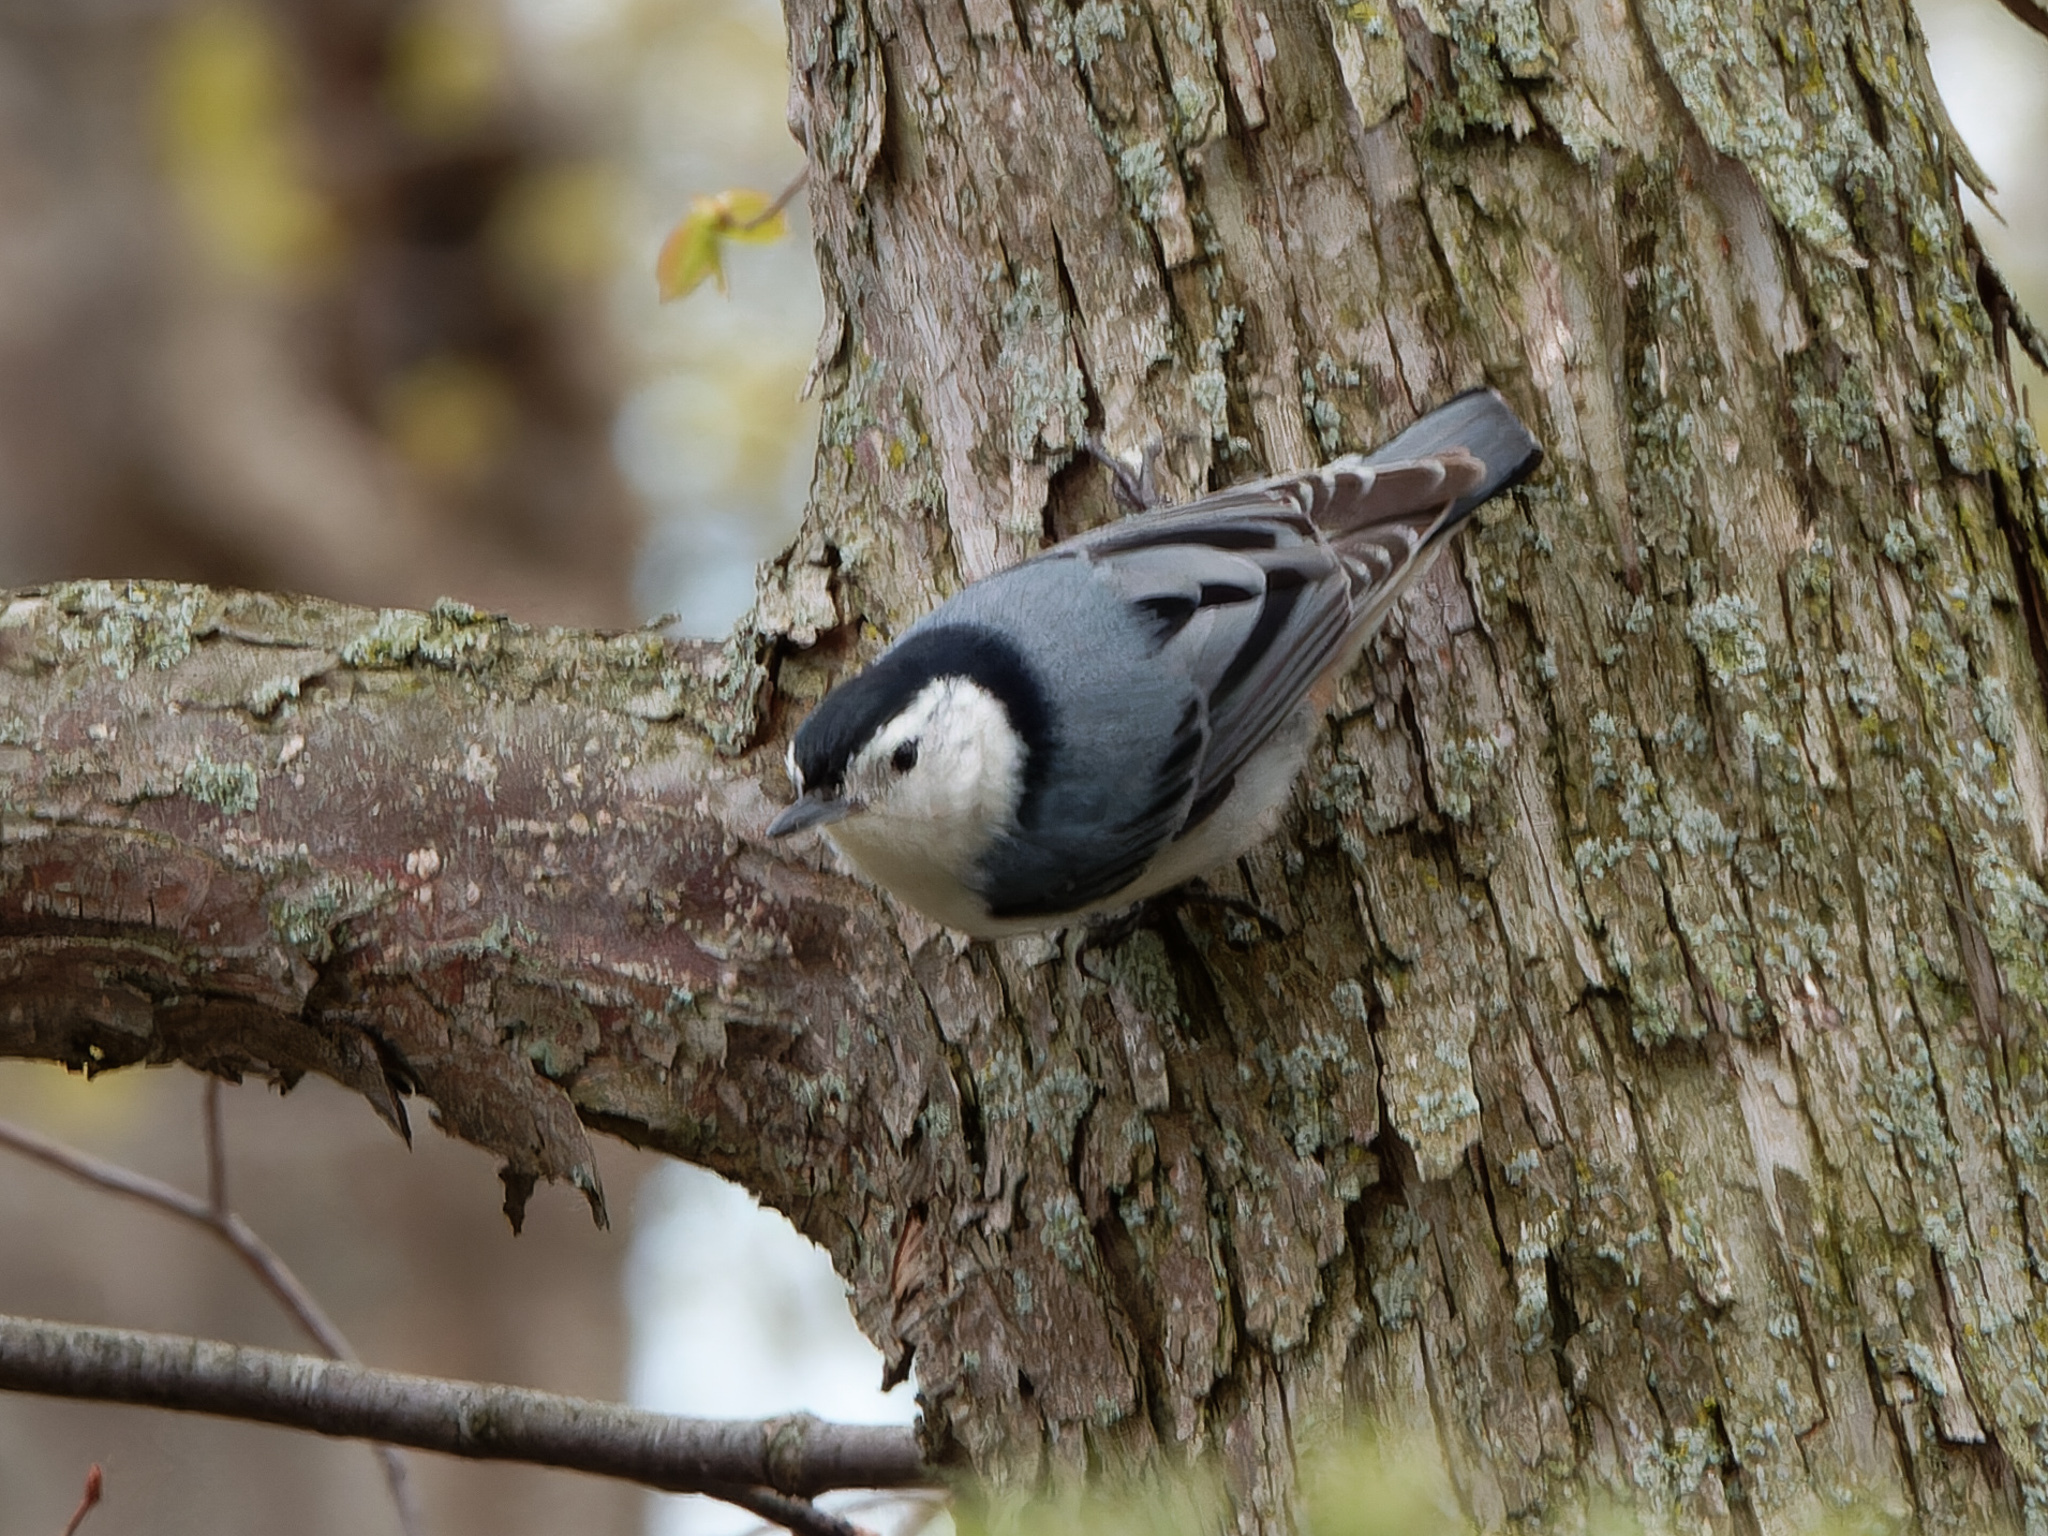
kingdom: Animalia
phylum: Chordata
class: Aves
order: Passeriformes
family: Sittidae
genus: Sitta
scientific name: Sitta carolinensis
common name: White-breasted nuthatch
